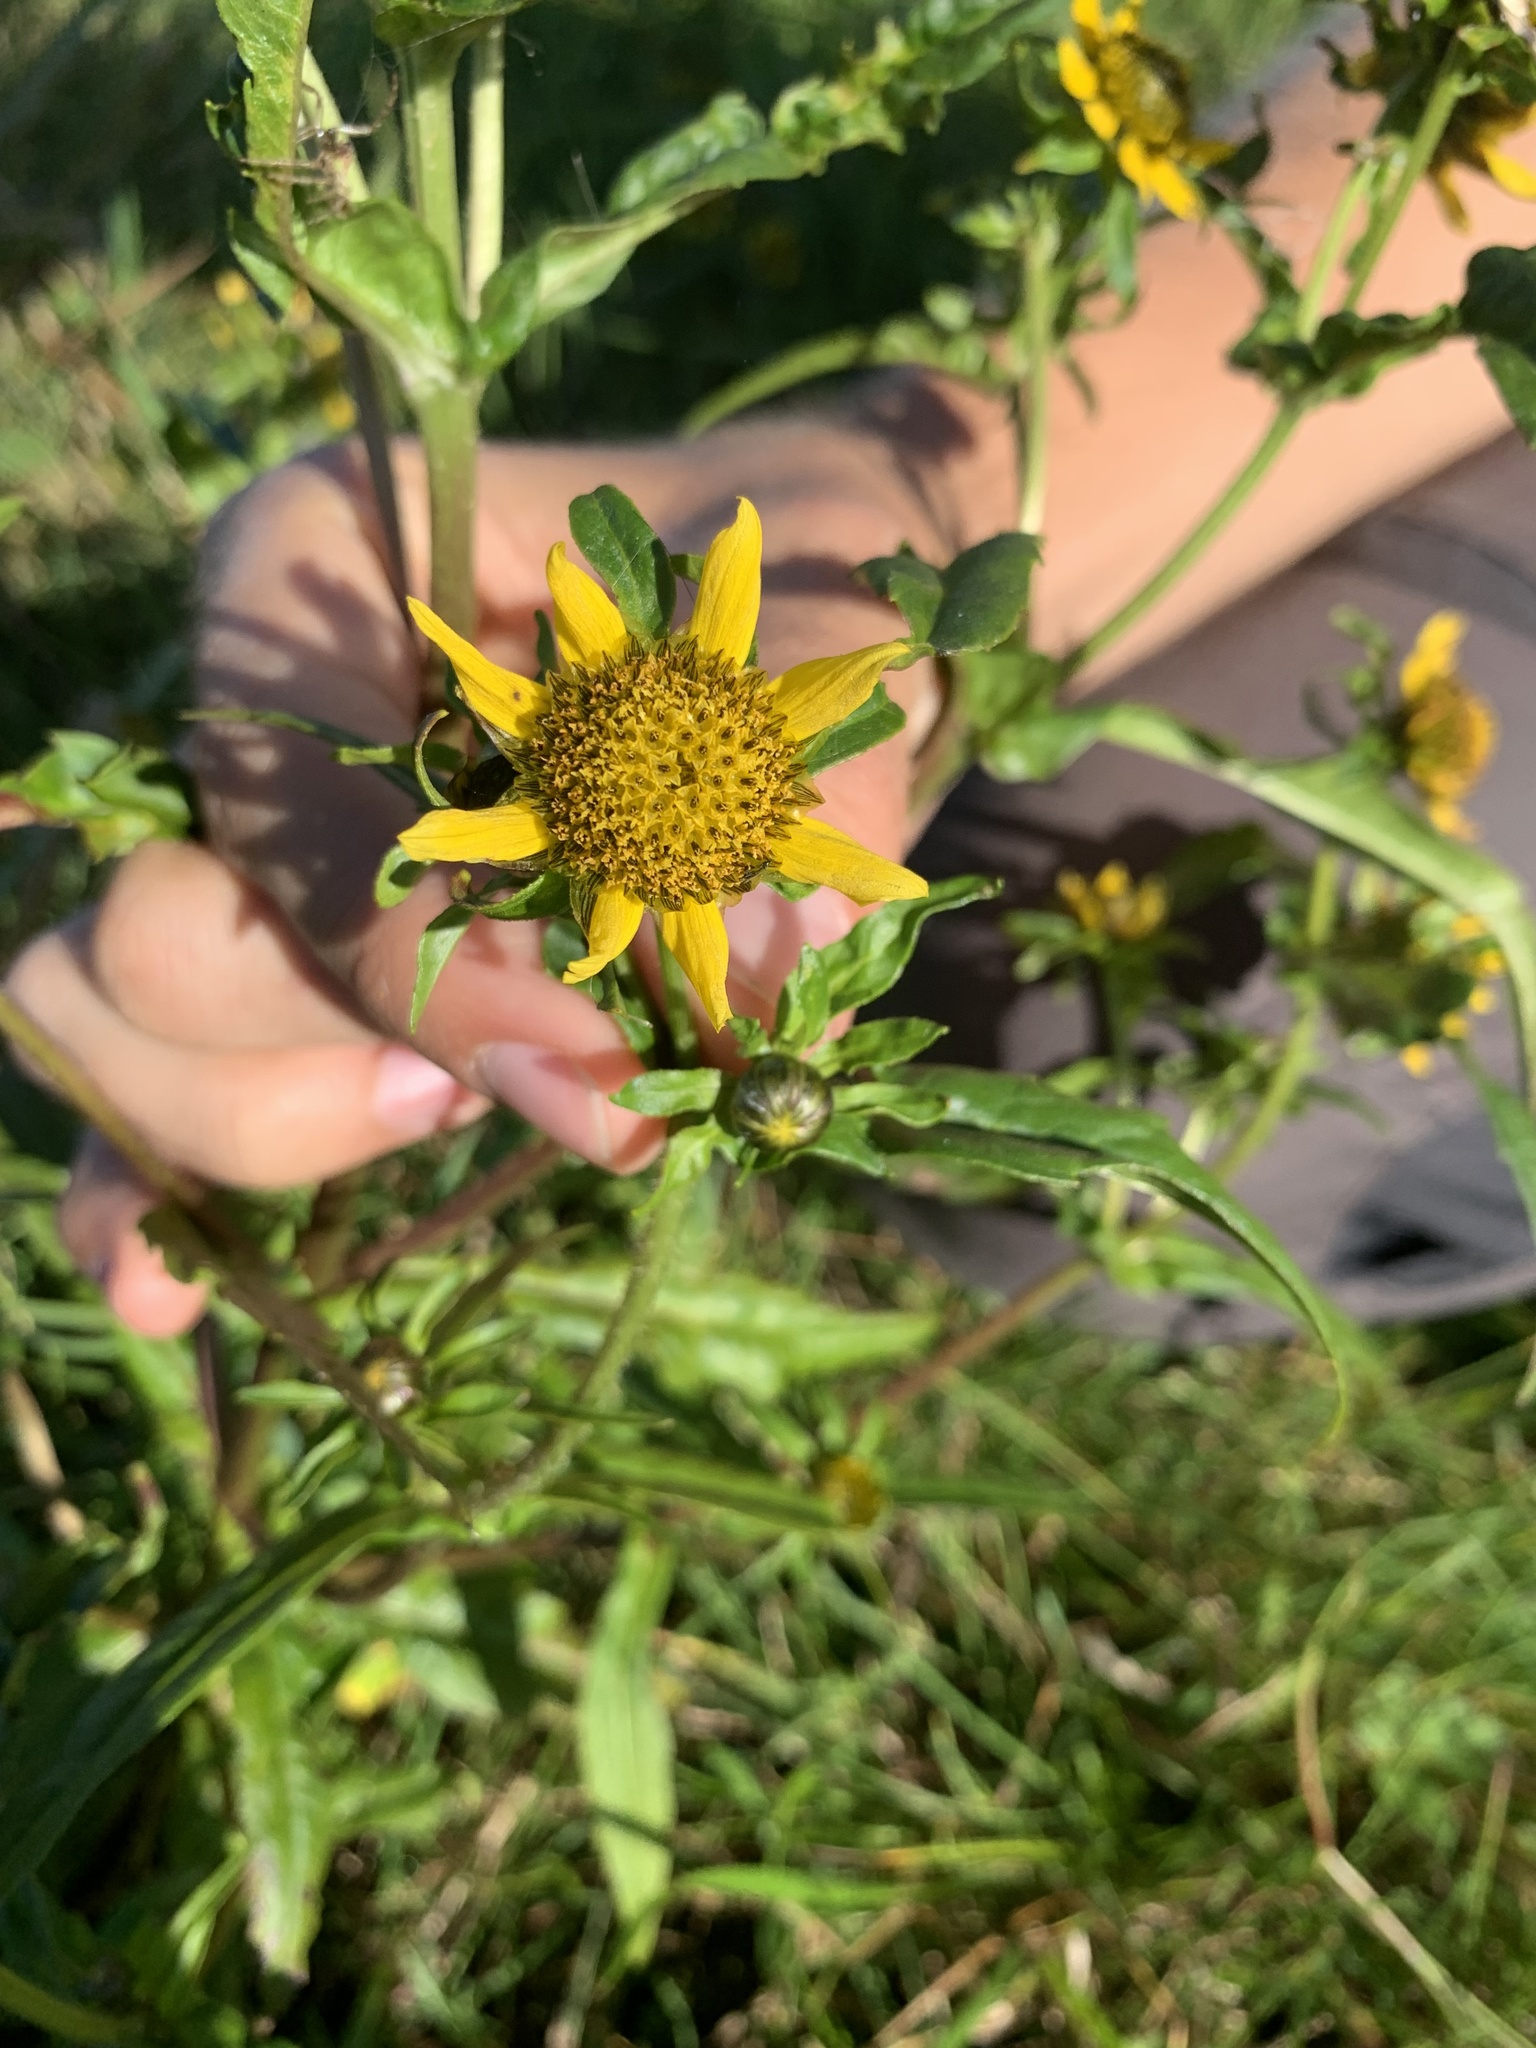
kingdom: Plantae
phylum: Tracheophyta
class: Magnoliopsida
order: Asterales
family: Asteraceae
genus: Bidens
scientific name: Bidens cernua
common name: Nodding bur-marigold
